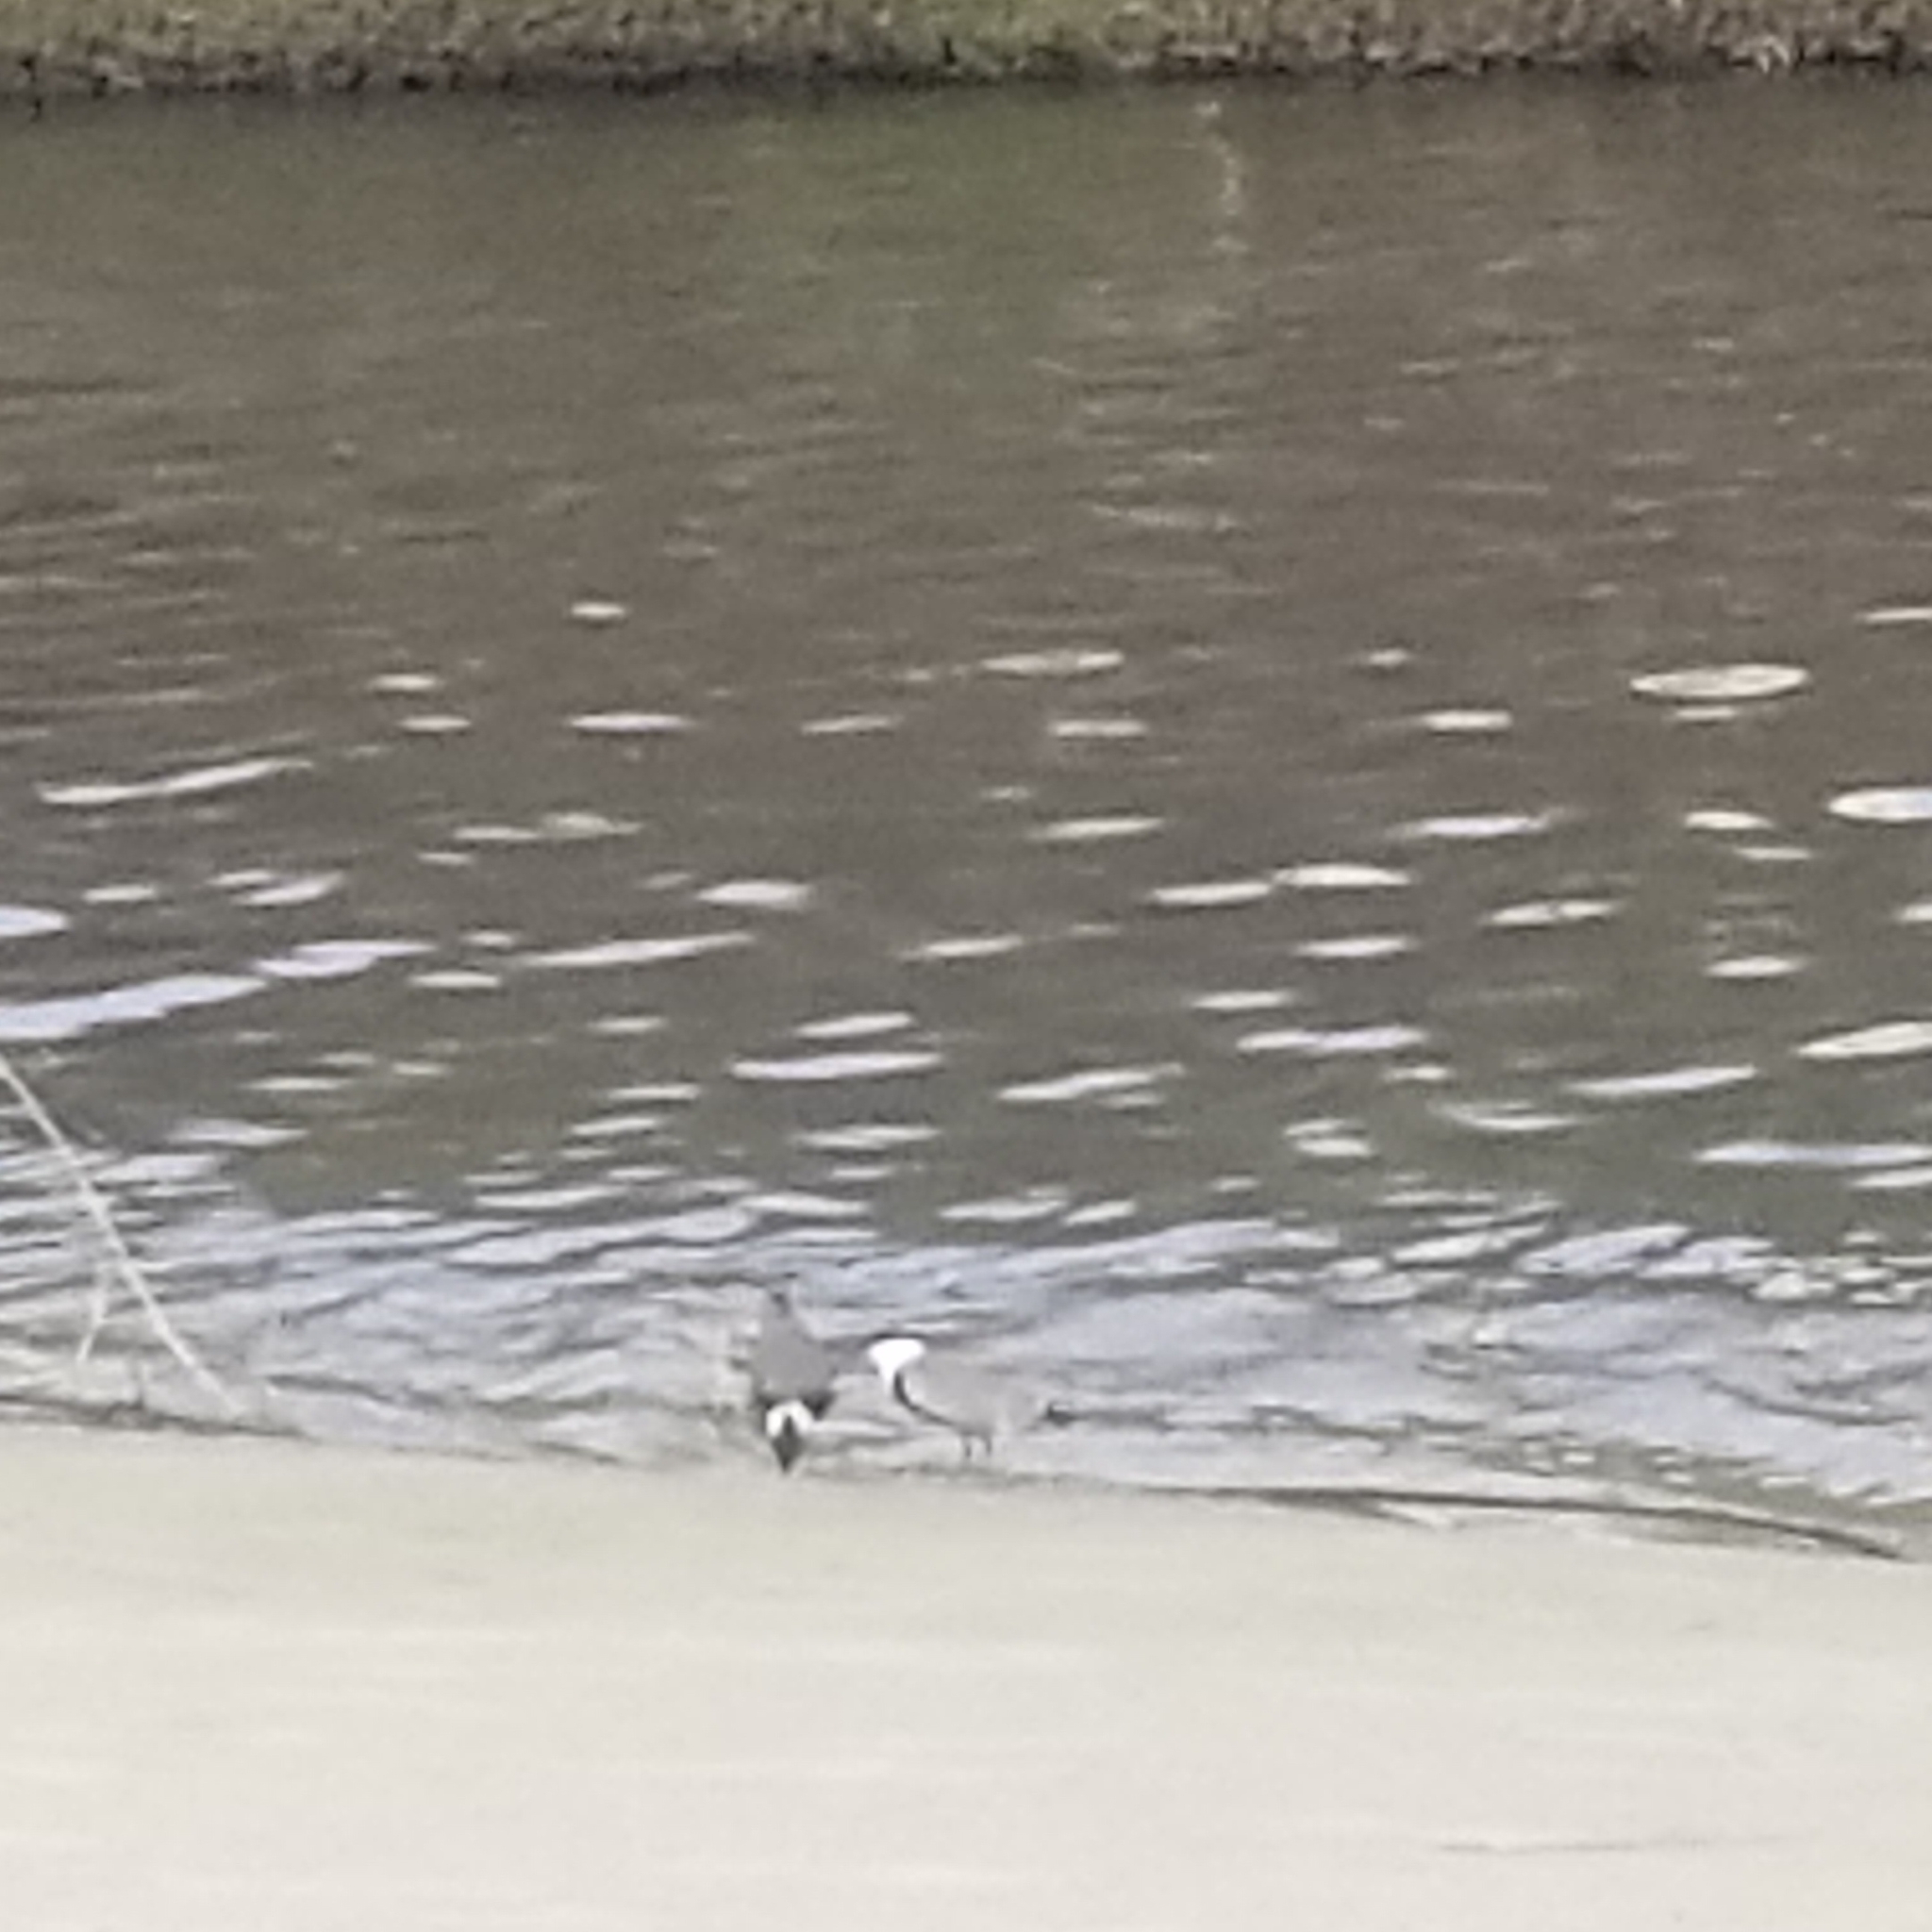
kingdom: Animalia
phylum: Chordata
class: Aves
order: Charadriiformes
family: Charadriidae
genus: Vanellus
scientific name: Vanellus spinosus
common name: Spur-winged lapwing
